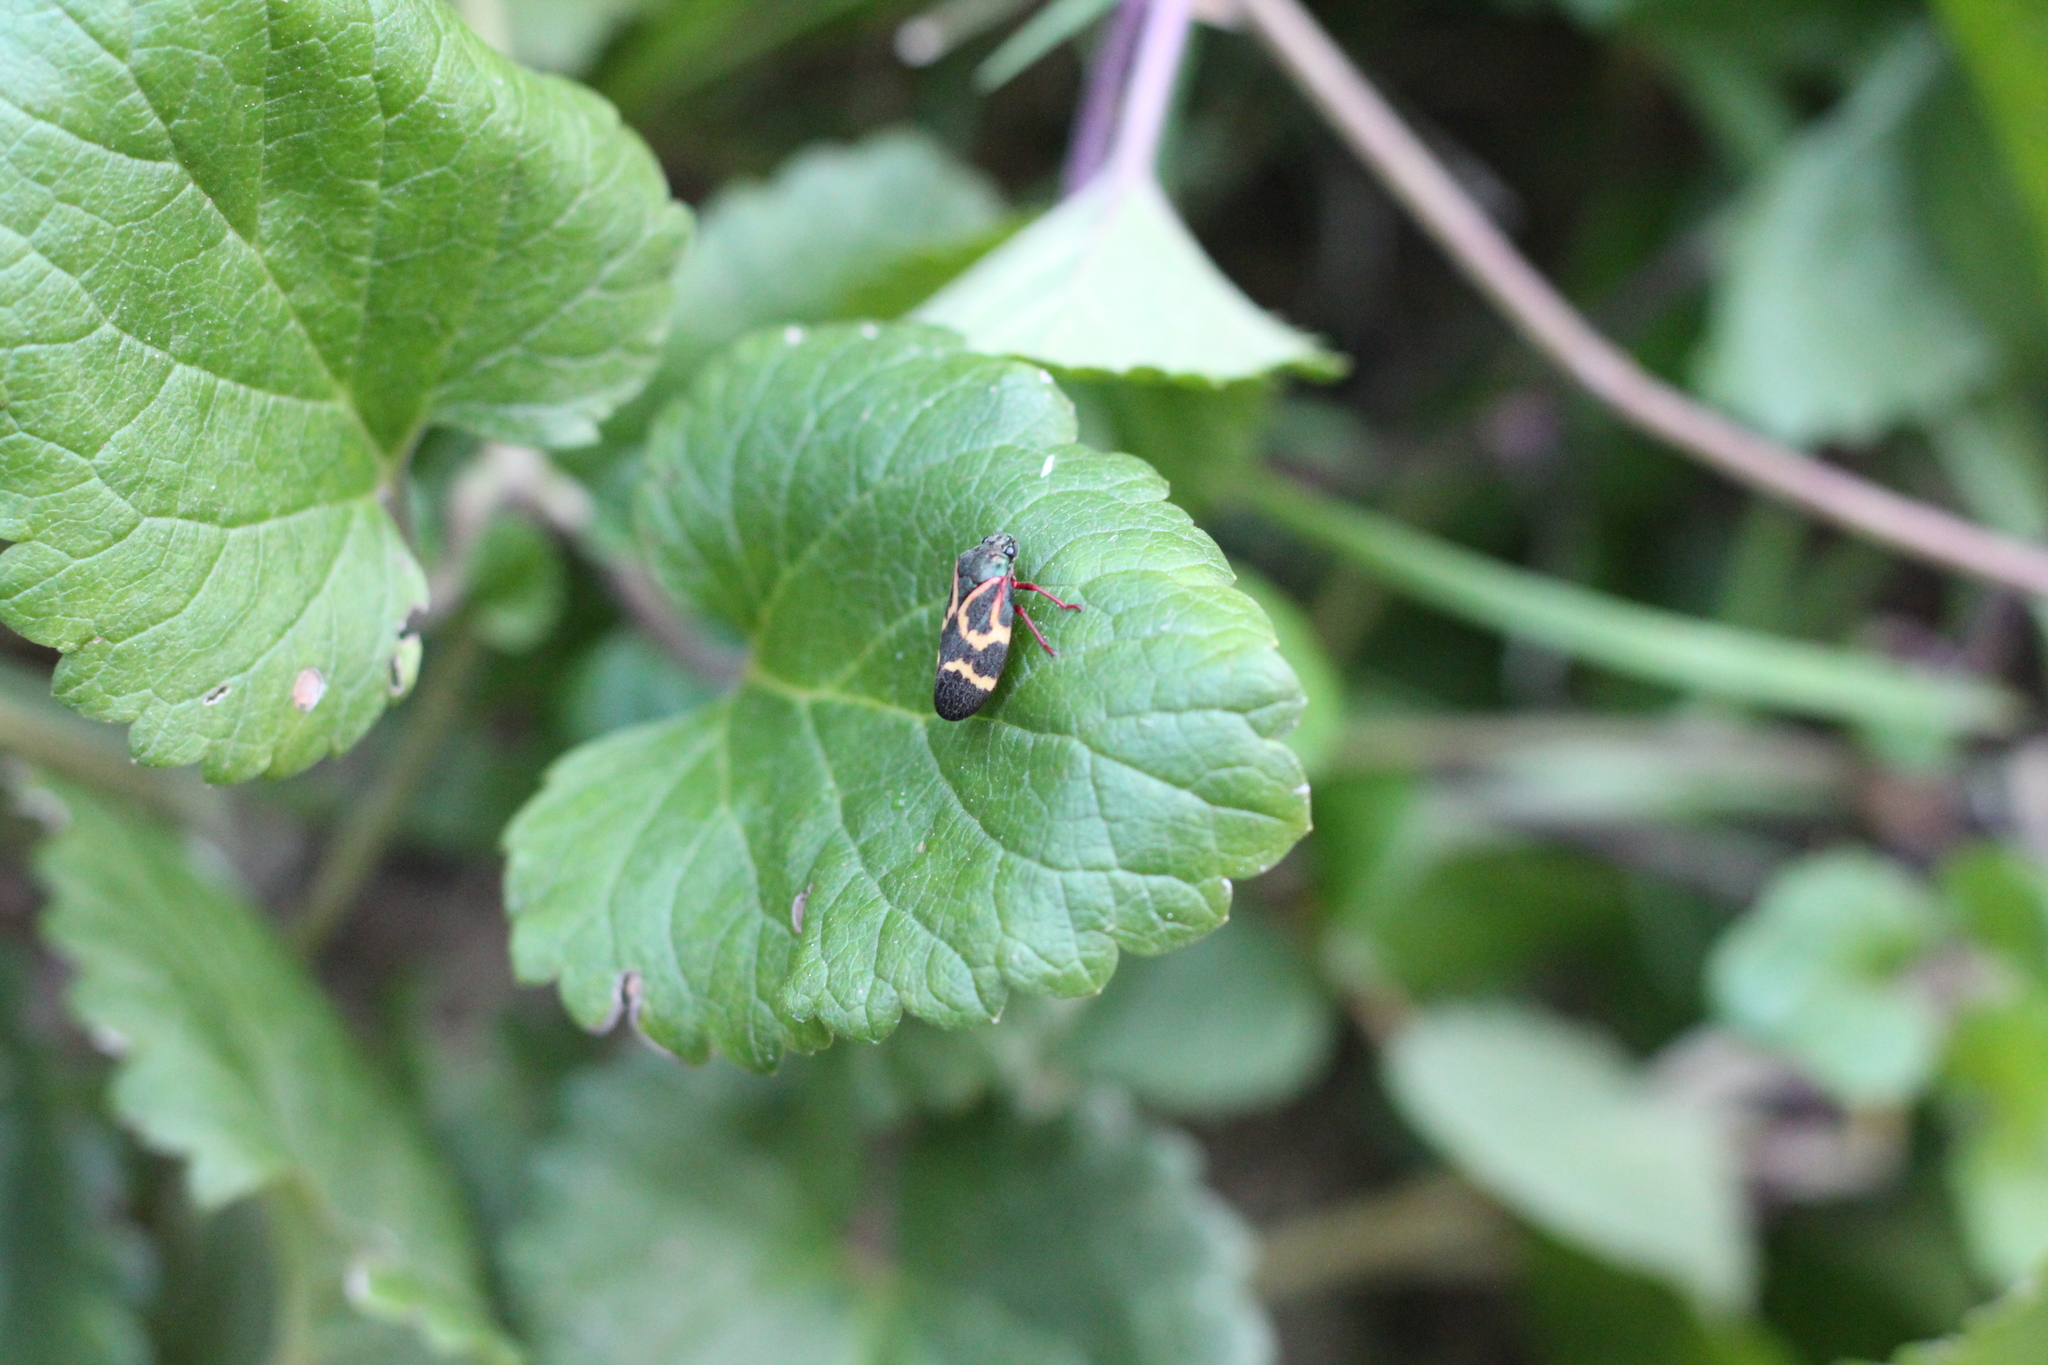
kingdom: Animalia
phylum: Arthropoda
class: Insecta
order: Hemiptera
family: Cercopidae
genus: Deois
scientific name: Deois flexuosa
